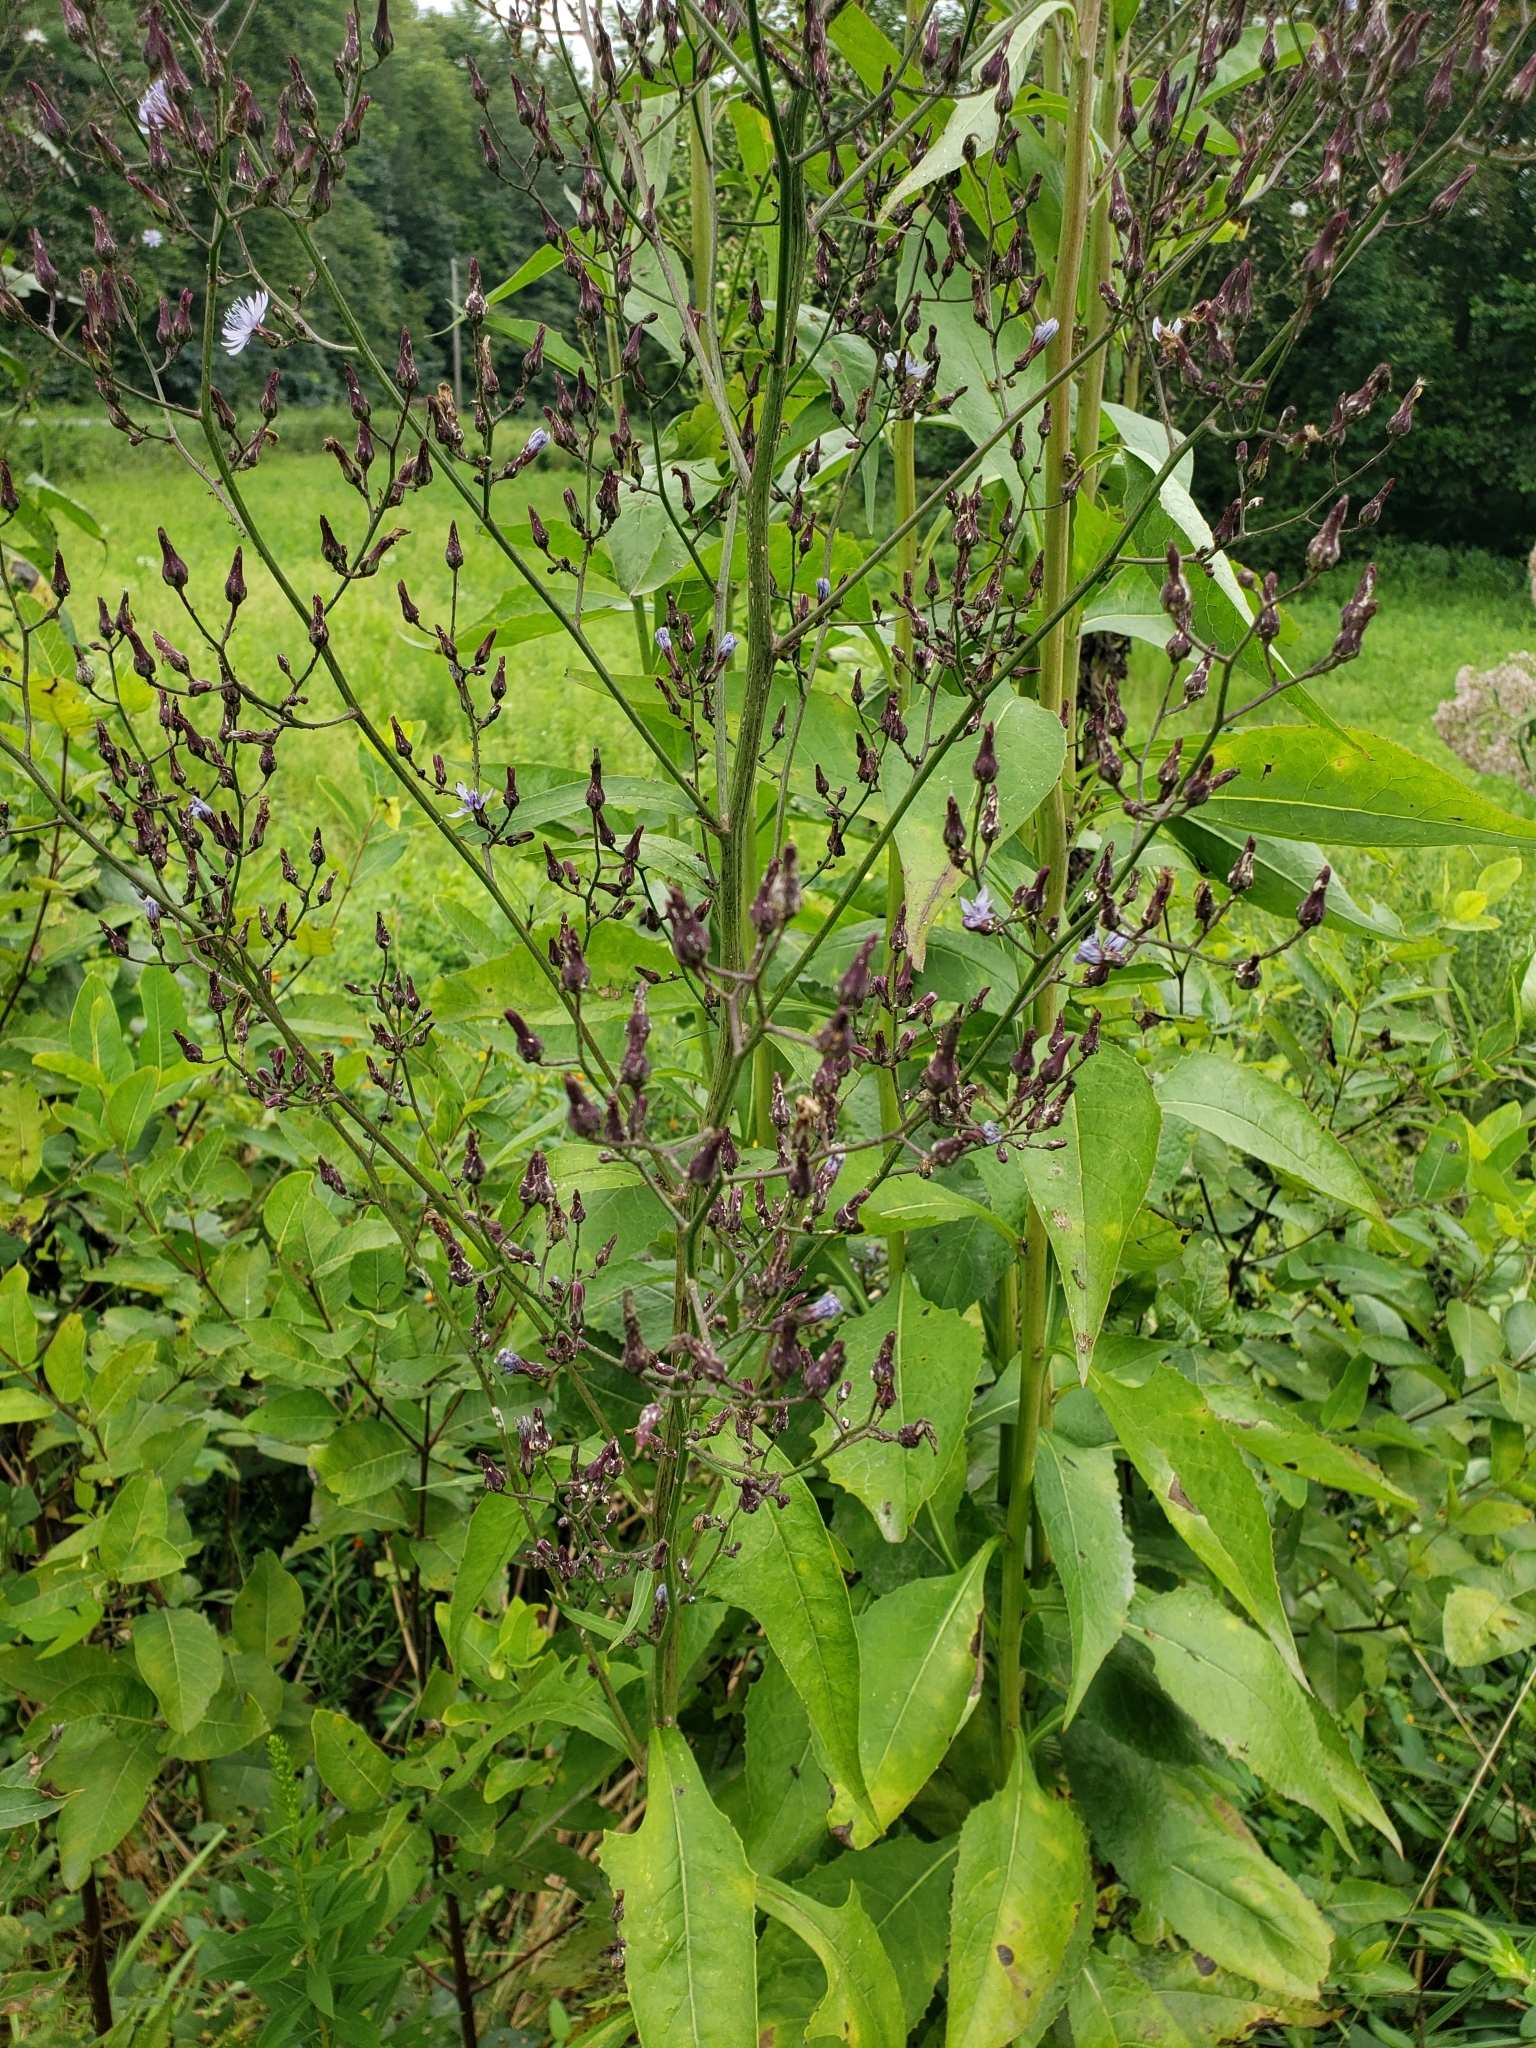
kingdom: Plantae
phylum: Tracheophyta
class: Magnoliopsida
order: Asterales
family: Asteraceae
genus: Lactuca
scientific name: Lactuca floridana
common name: Woodland lettuce
